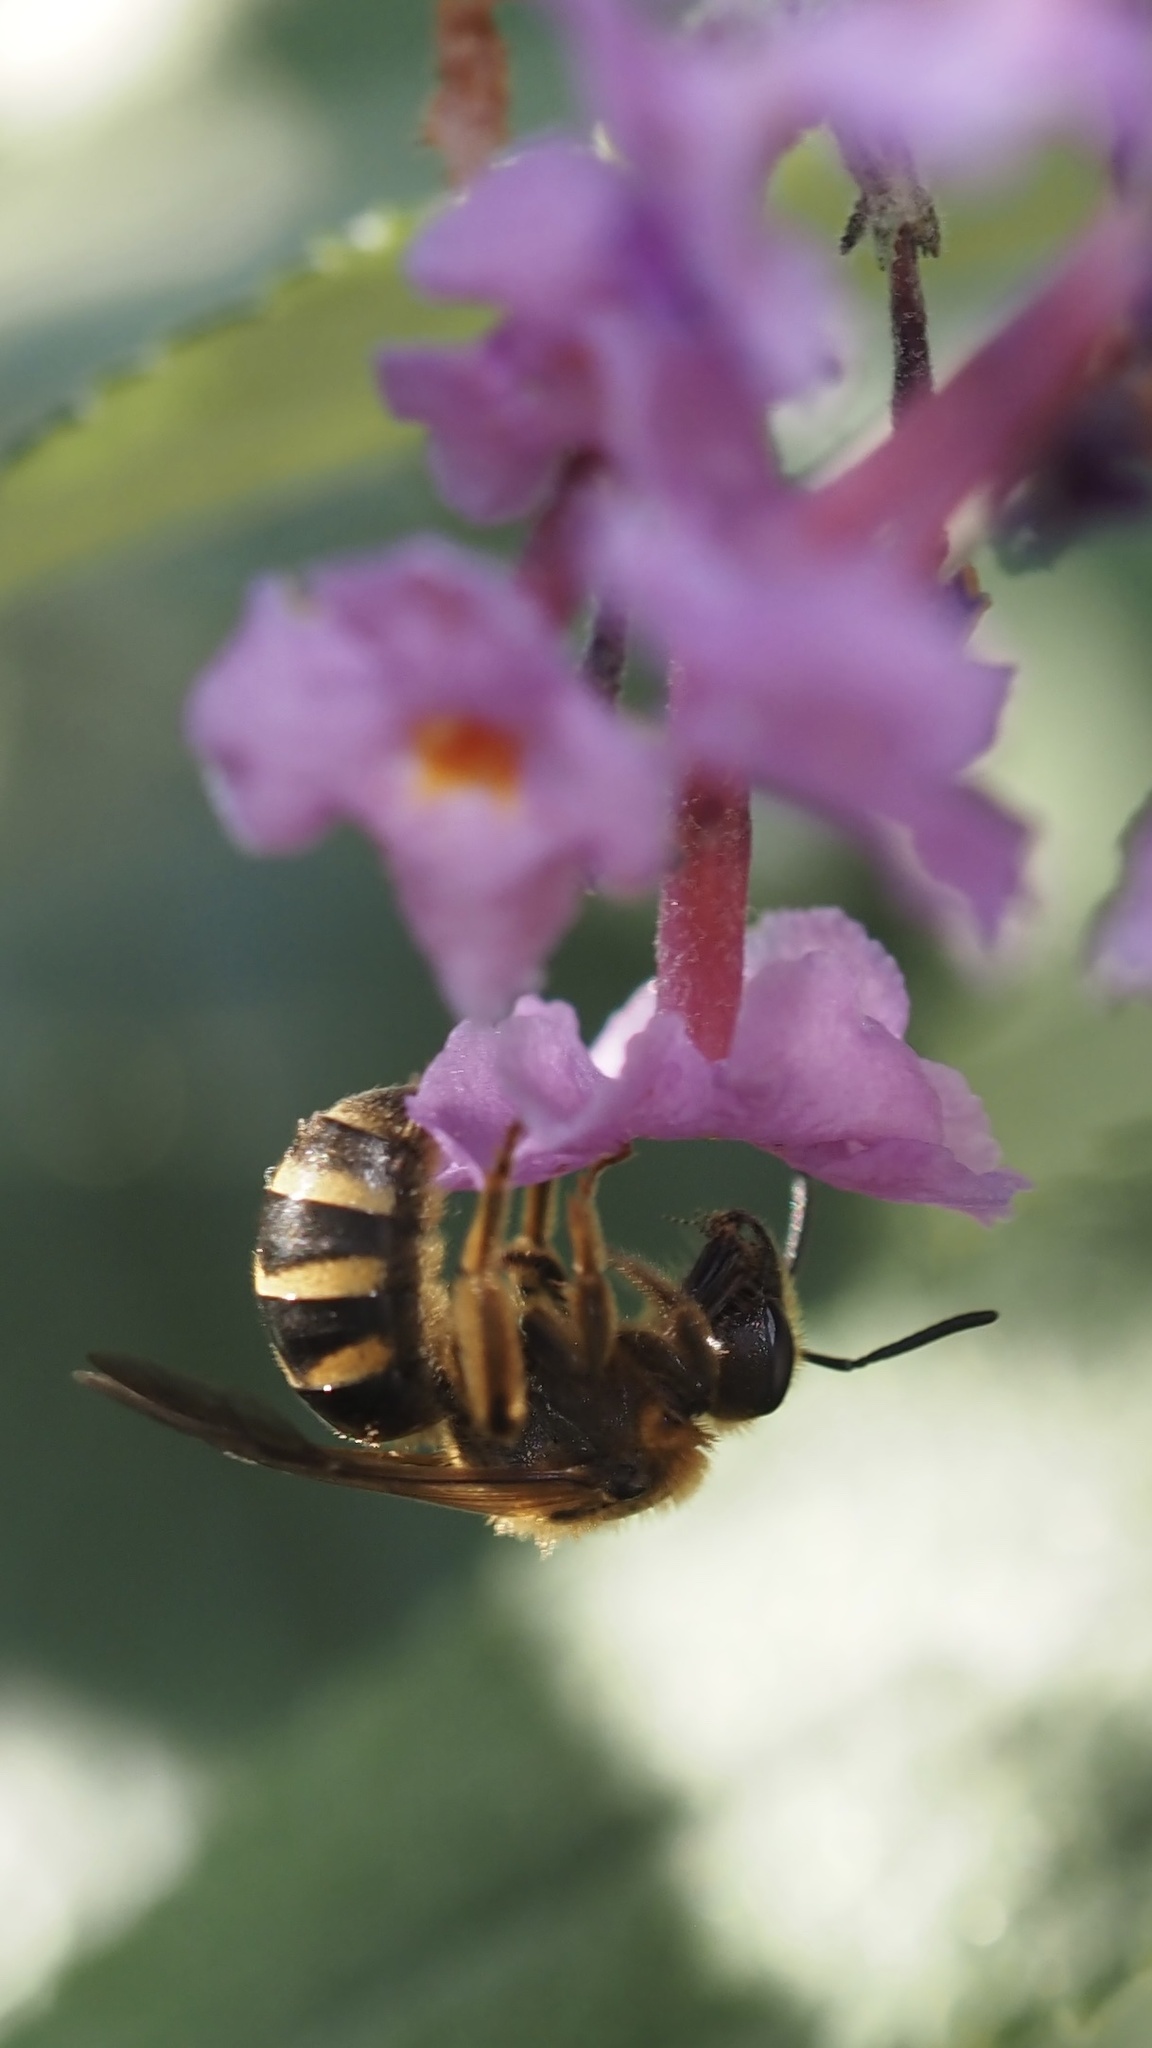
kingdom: Animalia
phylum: Arthropoda
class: Insecta
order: Hymenoptera
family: Halictidae
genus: Lasioglossum
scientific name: Lasioglossum pacificum
